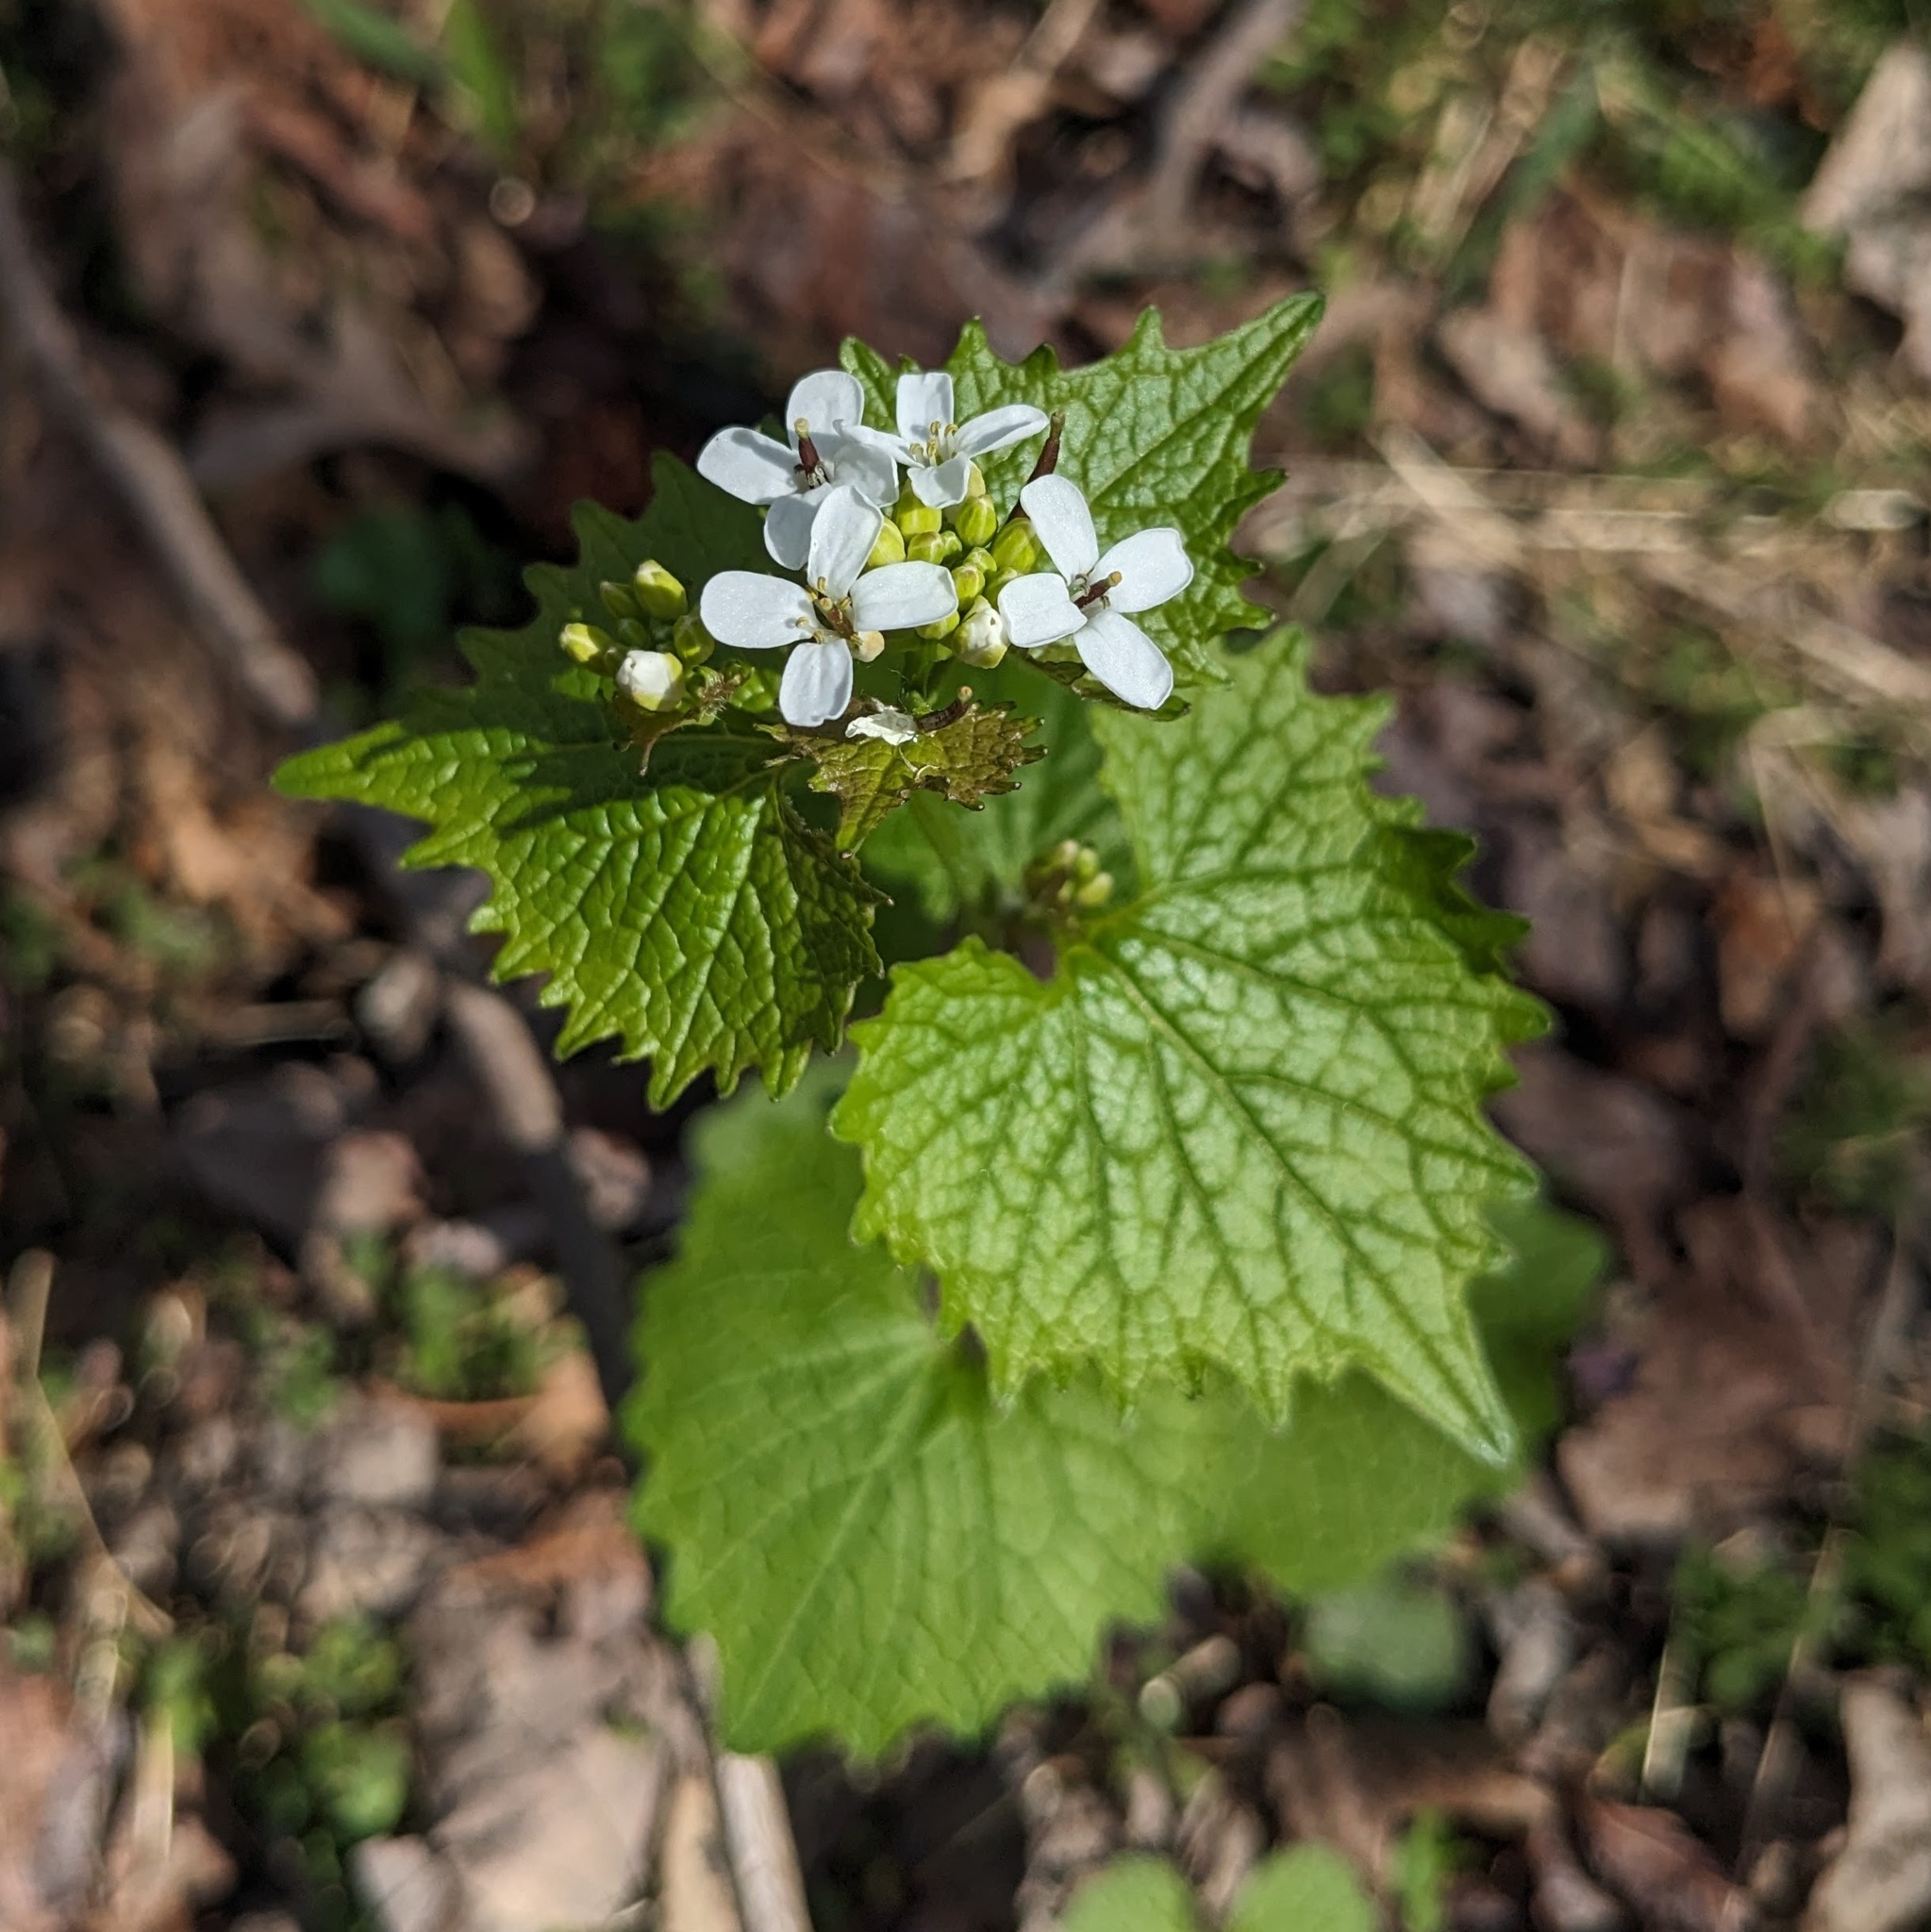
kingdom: Plantae
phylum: Tracheophyta
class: Magnoliopsida
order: Brassicales
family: Brassicaceae
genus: Alliaria
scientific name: Alliaria petiolata
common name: Garlic mustard
